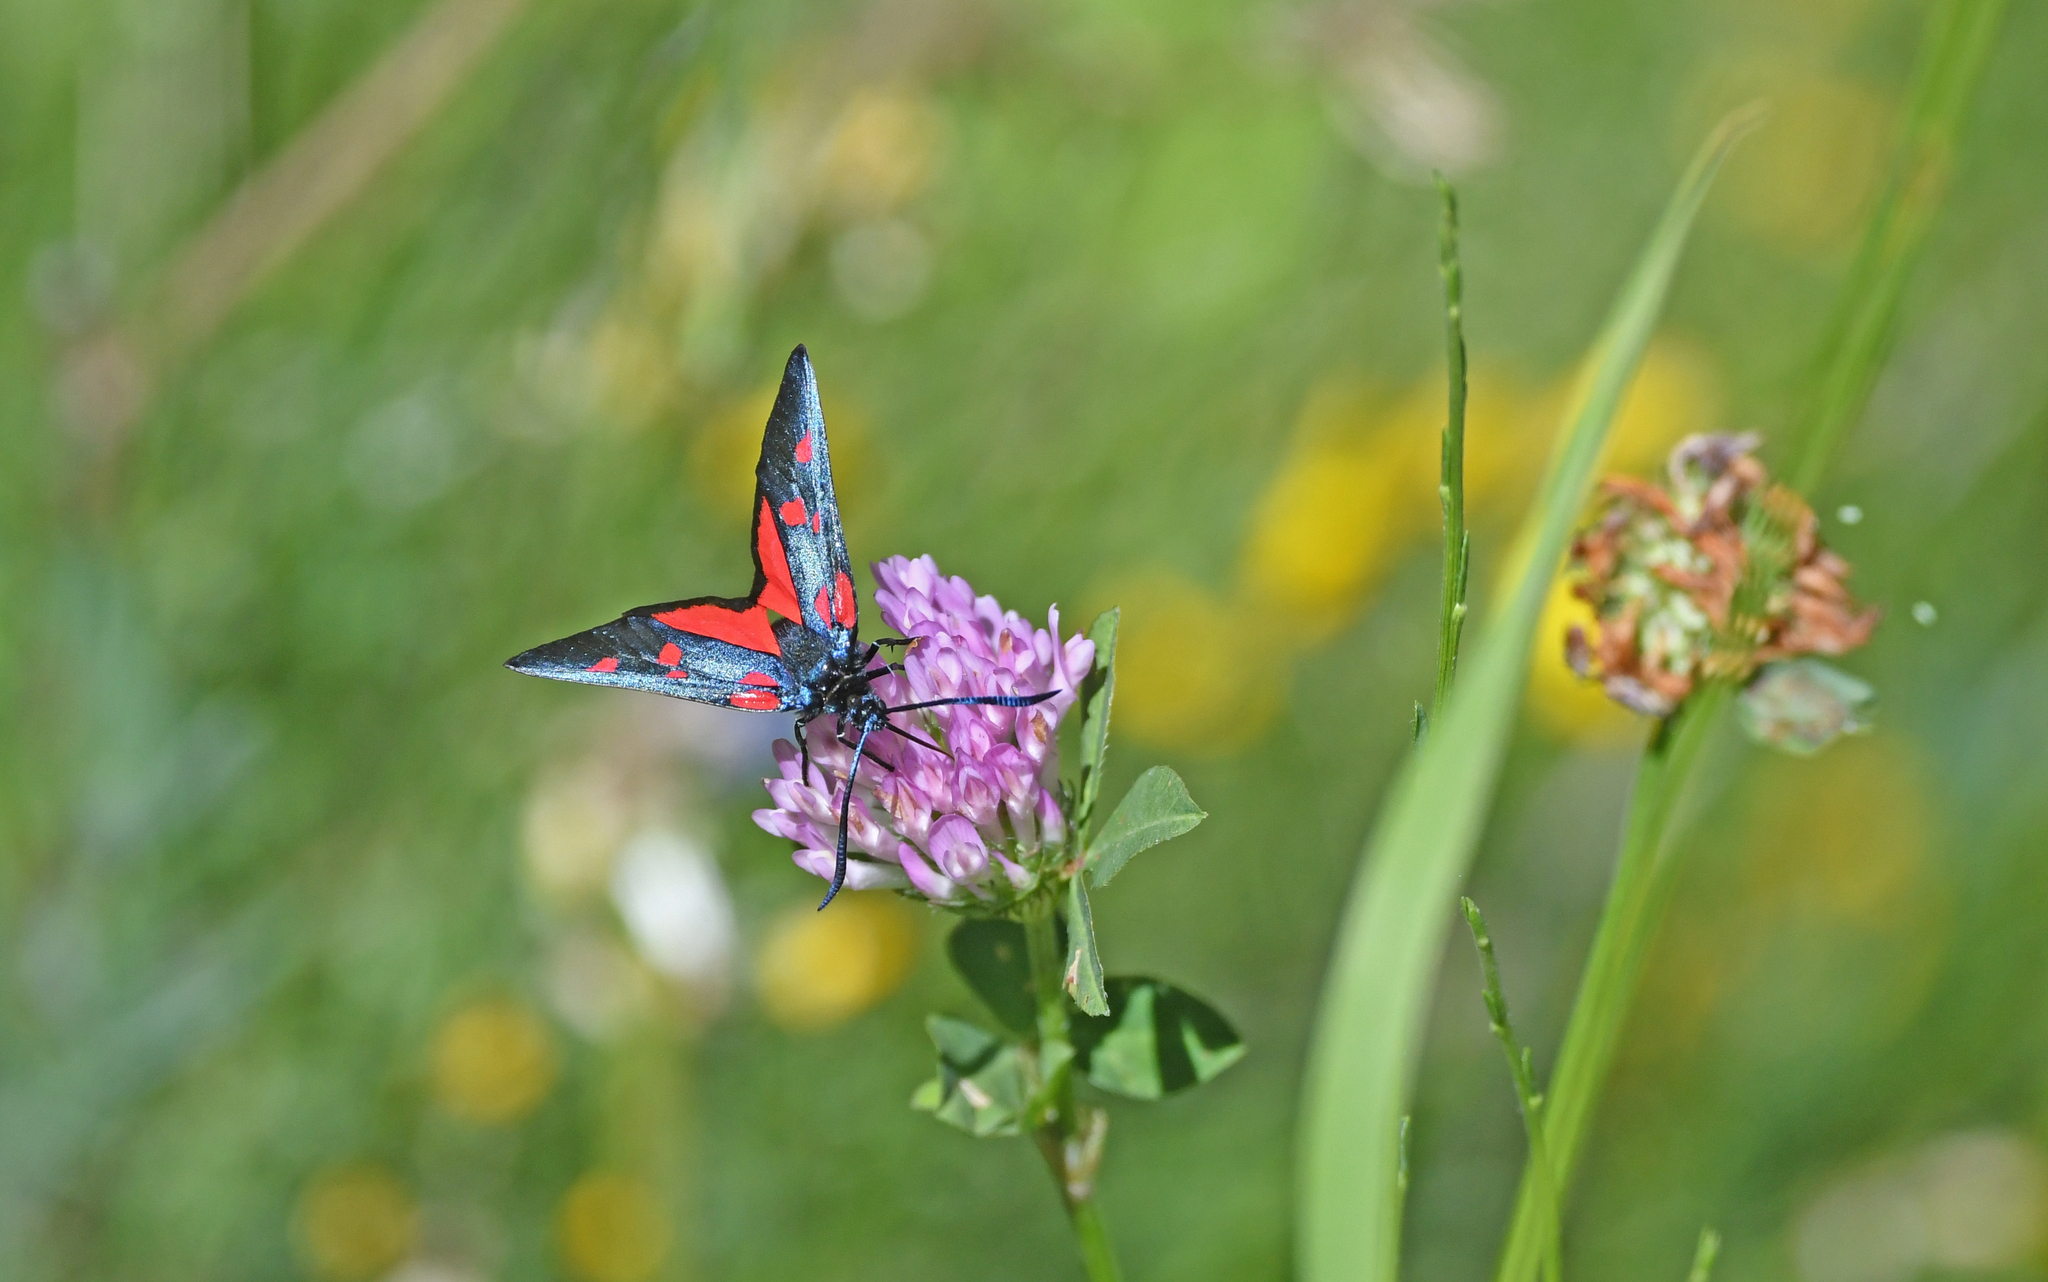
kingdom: Animalia
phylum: Arthropoda
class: Insecta
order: Lepidoptera
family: Zygaenidae
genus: Zygaena
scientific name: Zygaena lonicerae
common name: Narrow-bordered five-spot burnet
